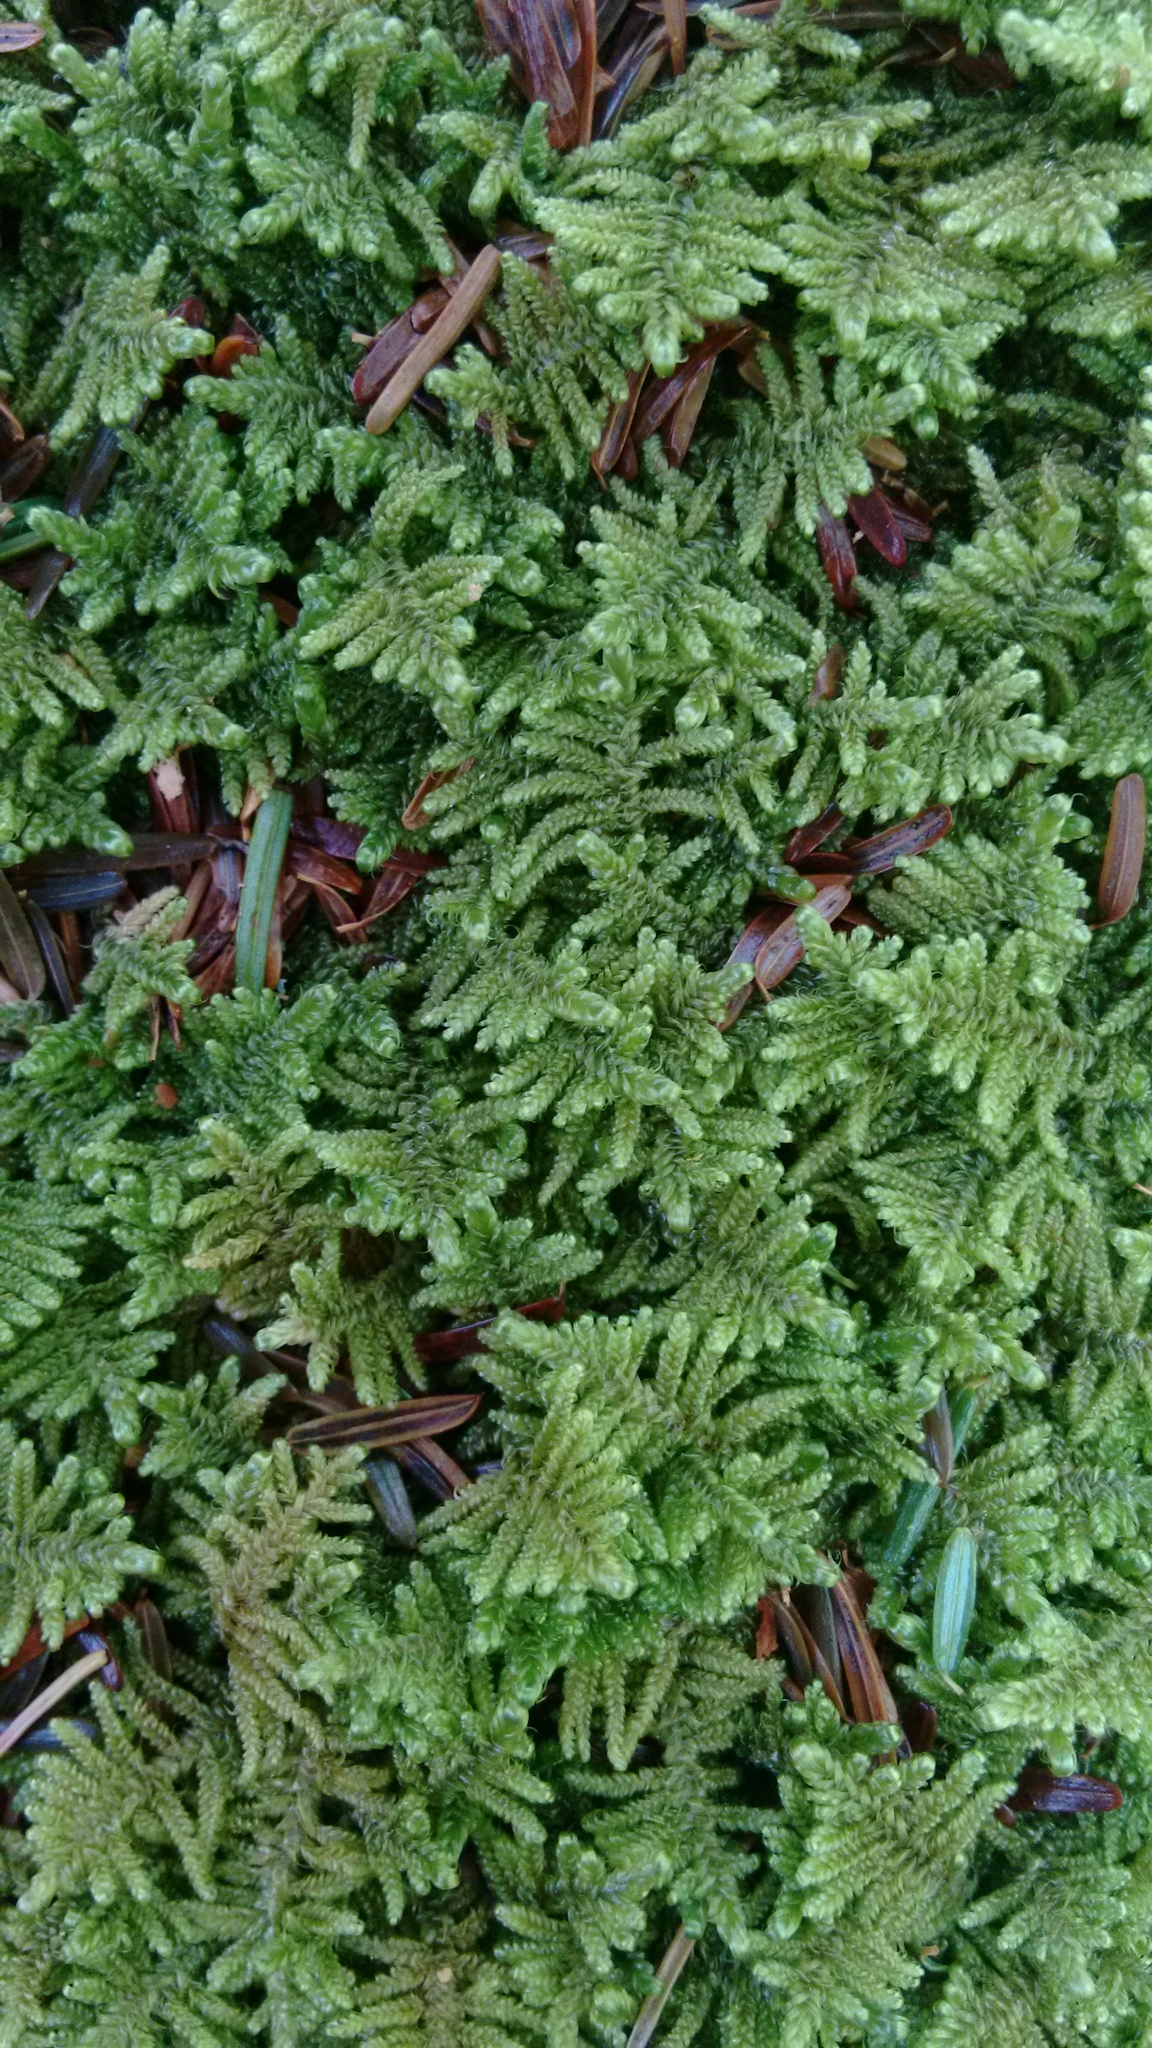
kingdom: Plantae
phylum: Bryophyta
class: Bryopsida
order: Hypnales
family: Callicladiaceae
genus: Callicladium
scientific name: Callicladium imponens
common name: Brocade moss
